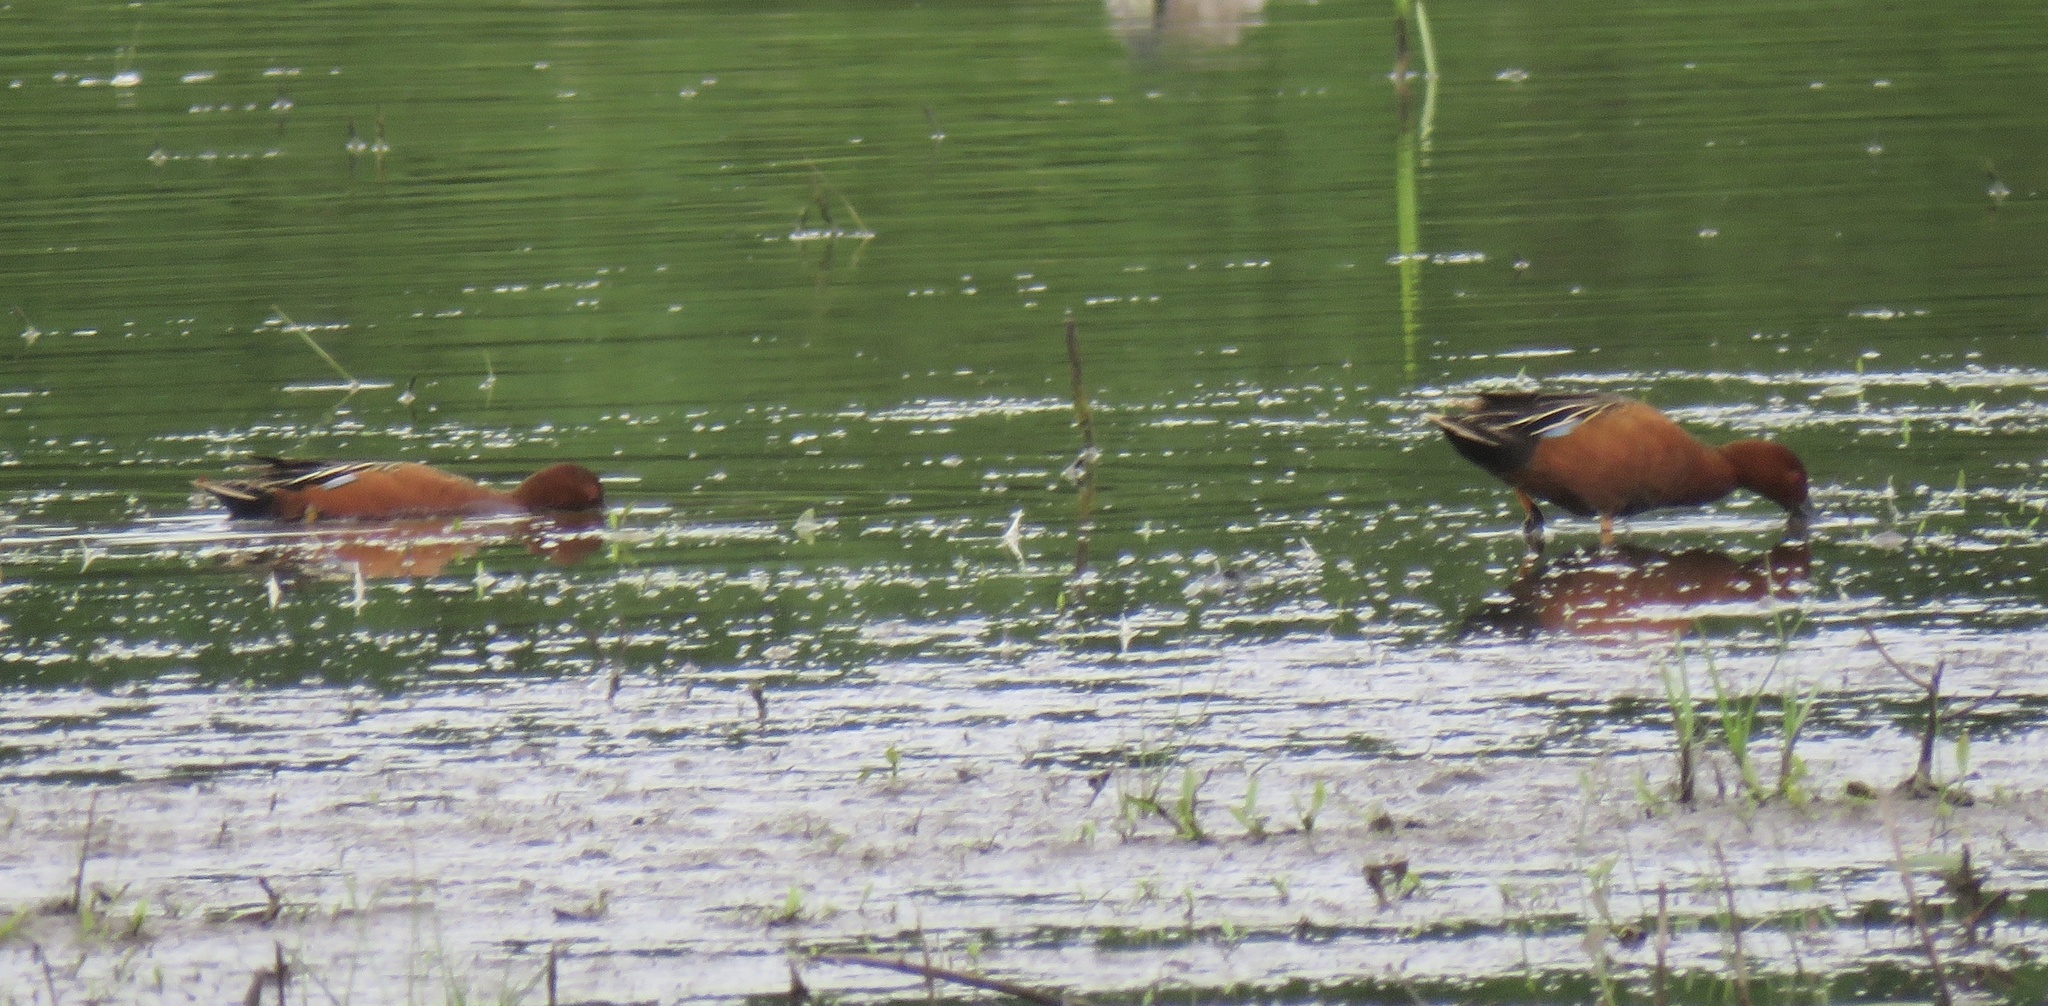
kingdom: Animalia
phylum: Chordata
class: Aves
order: Anseriformes
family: Anatidae
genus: Spatula
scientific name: Spatula cyanoptera
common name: Cinnamon teal
